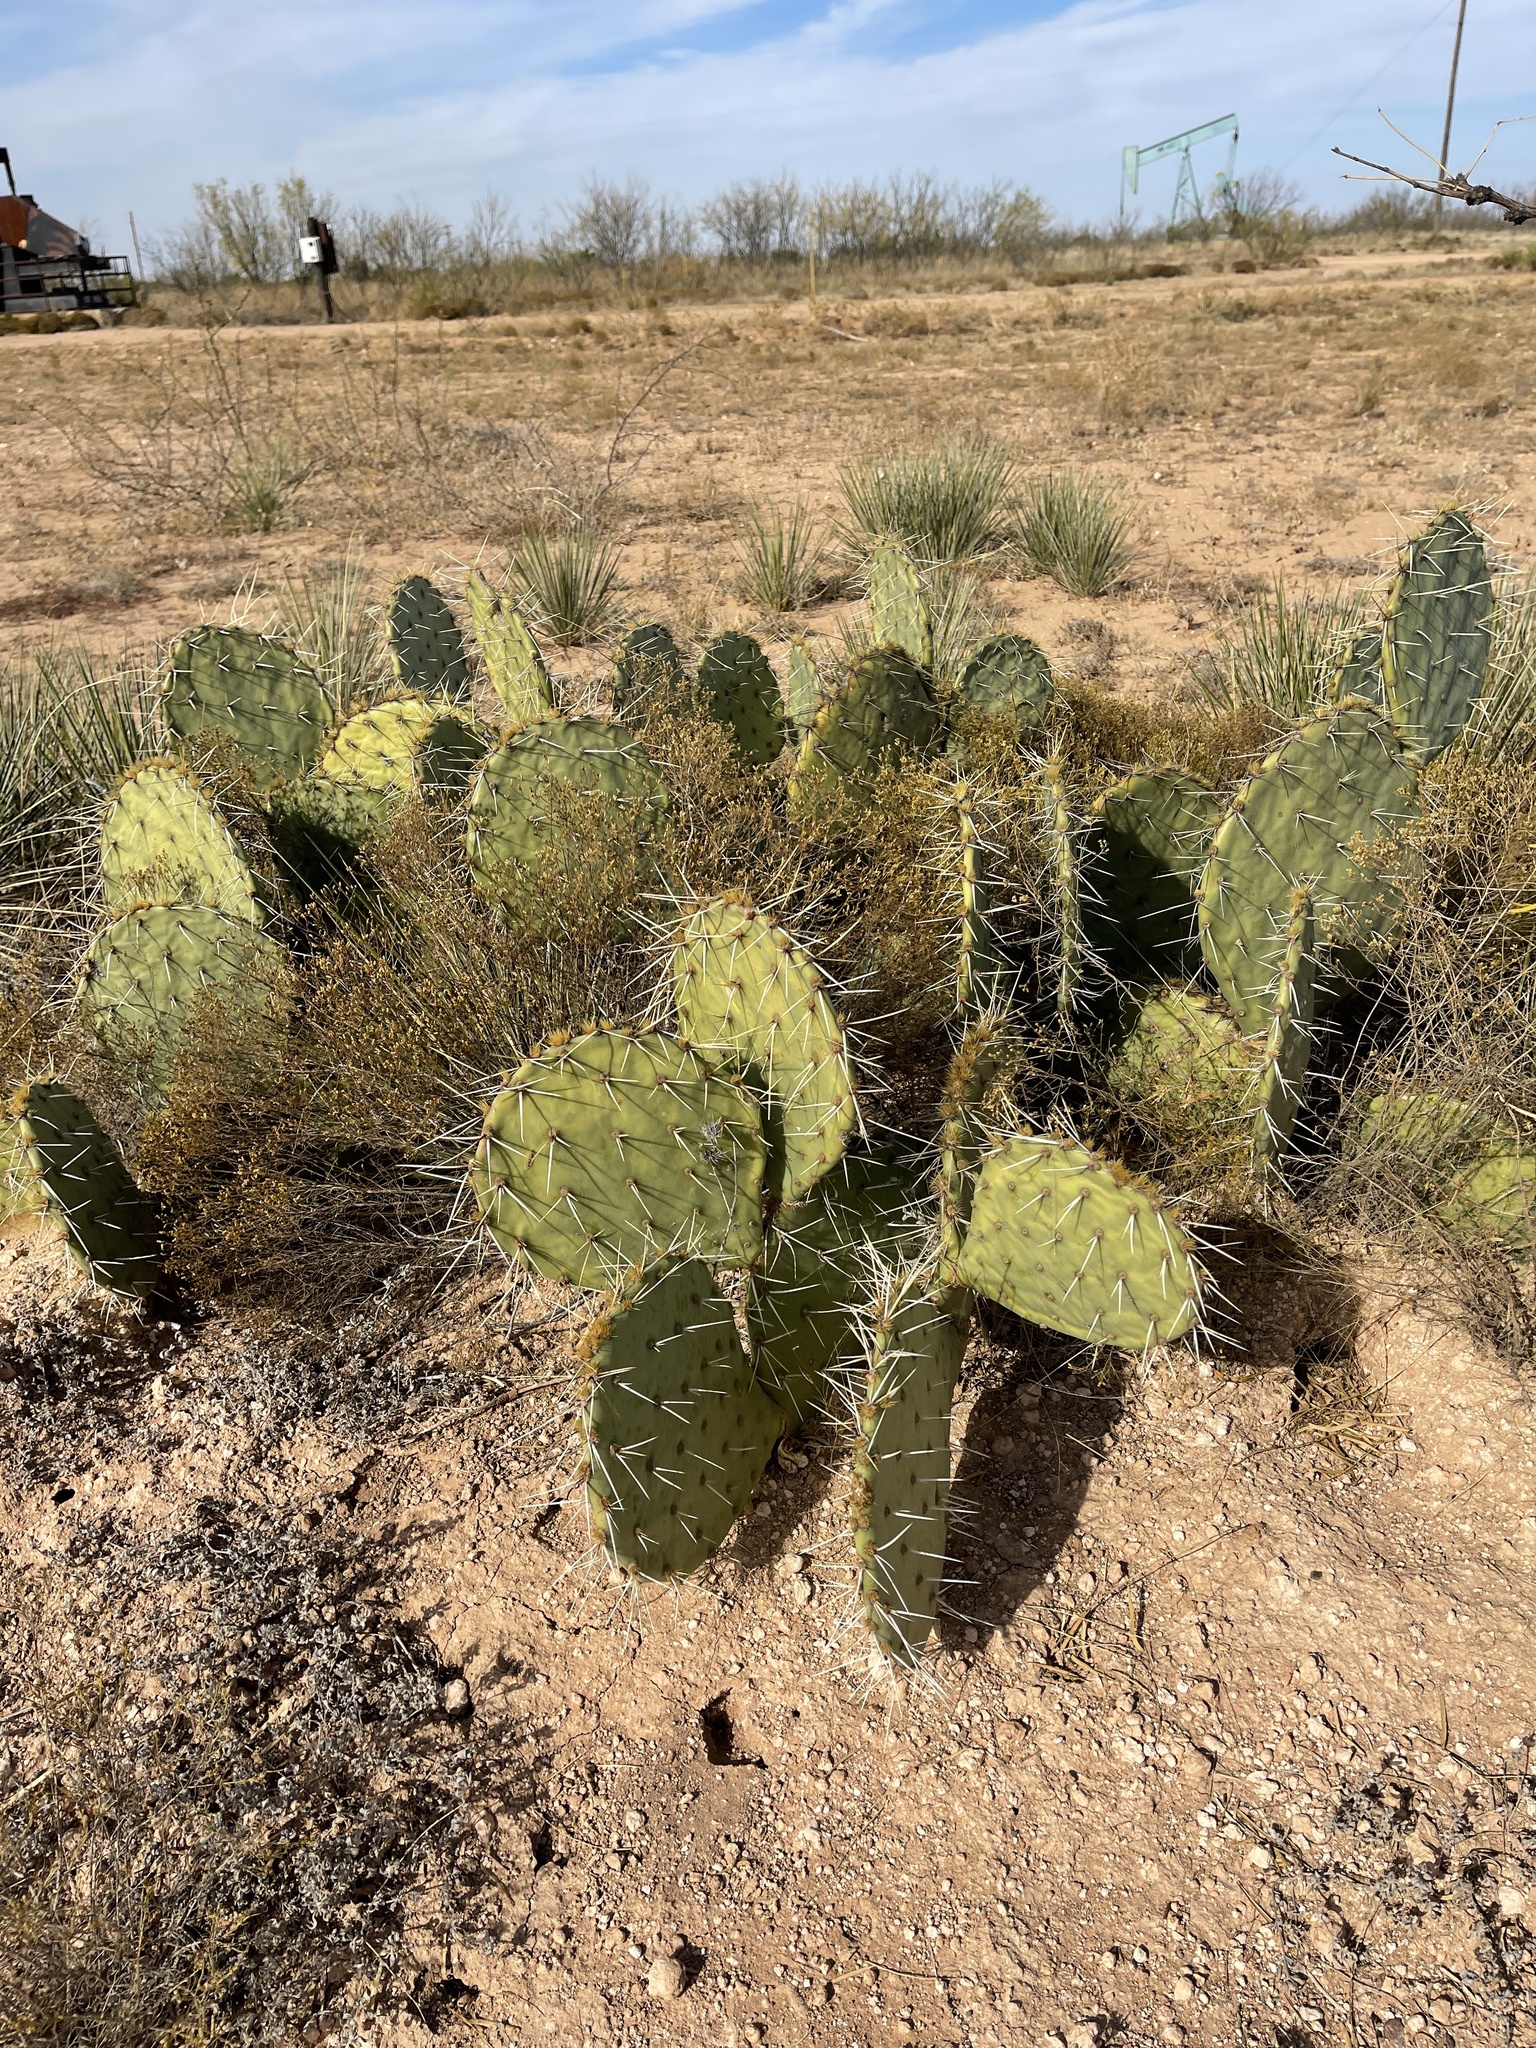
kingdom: Plantae
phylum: Tracheophyta
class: Magnoliopsida
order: Caryophyllales
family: Cactaceae
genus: Opuntia
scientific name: Opuntia engelmannii
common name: Cactus-apple
